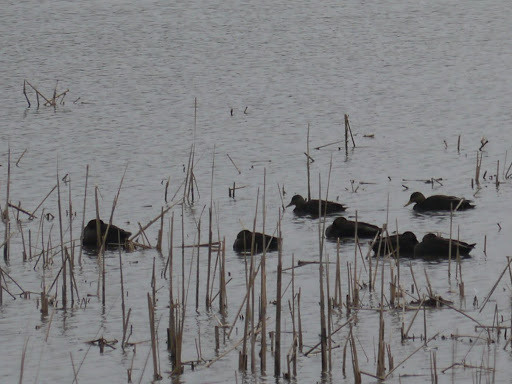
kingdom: Animalia
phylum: Chordata
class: Aves
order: Anseriformes
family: Anatidae
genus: Anas
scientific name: Anas rubripes
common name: American black duck
